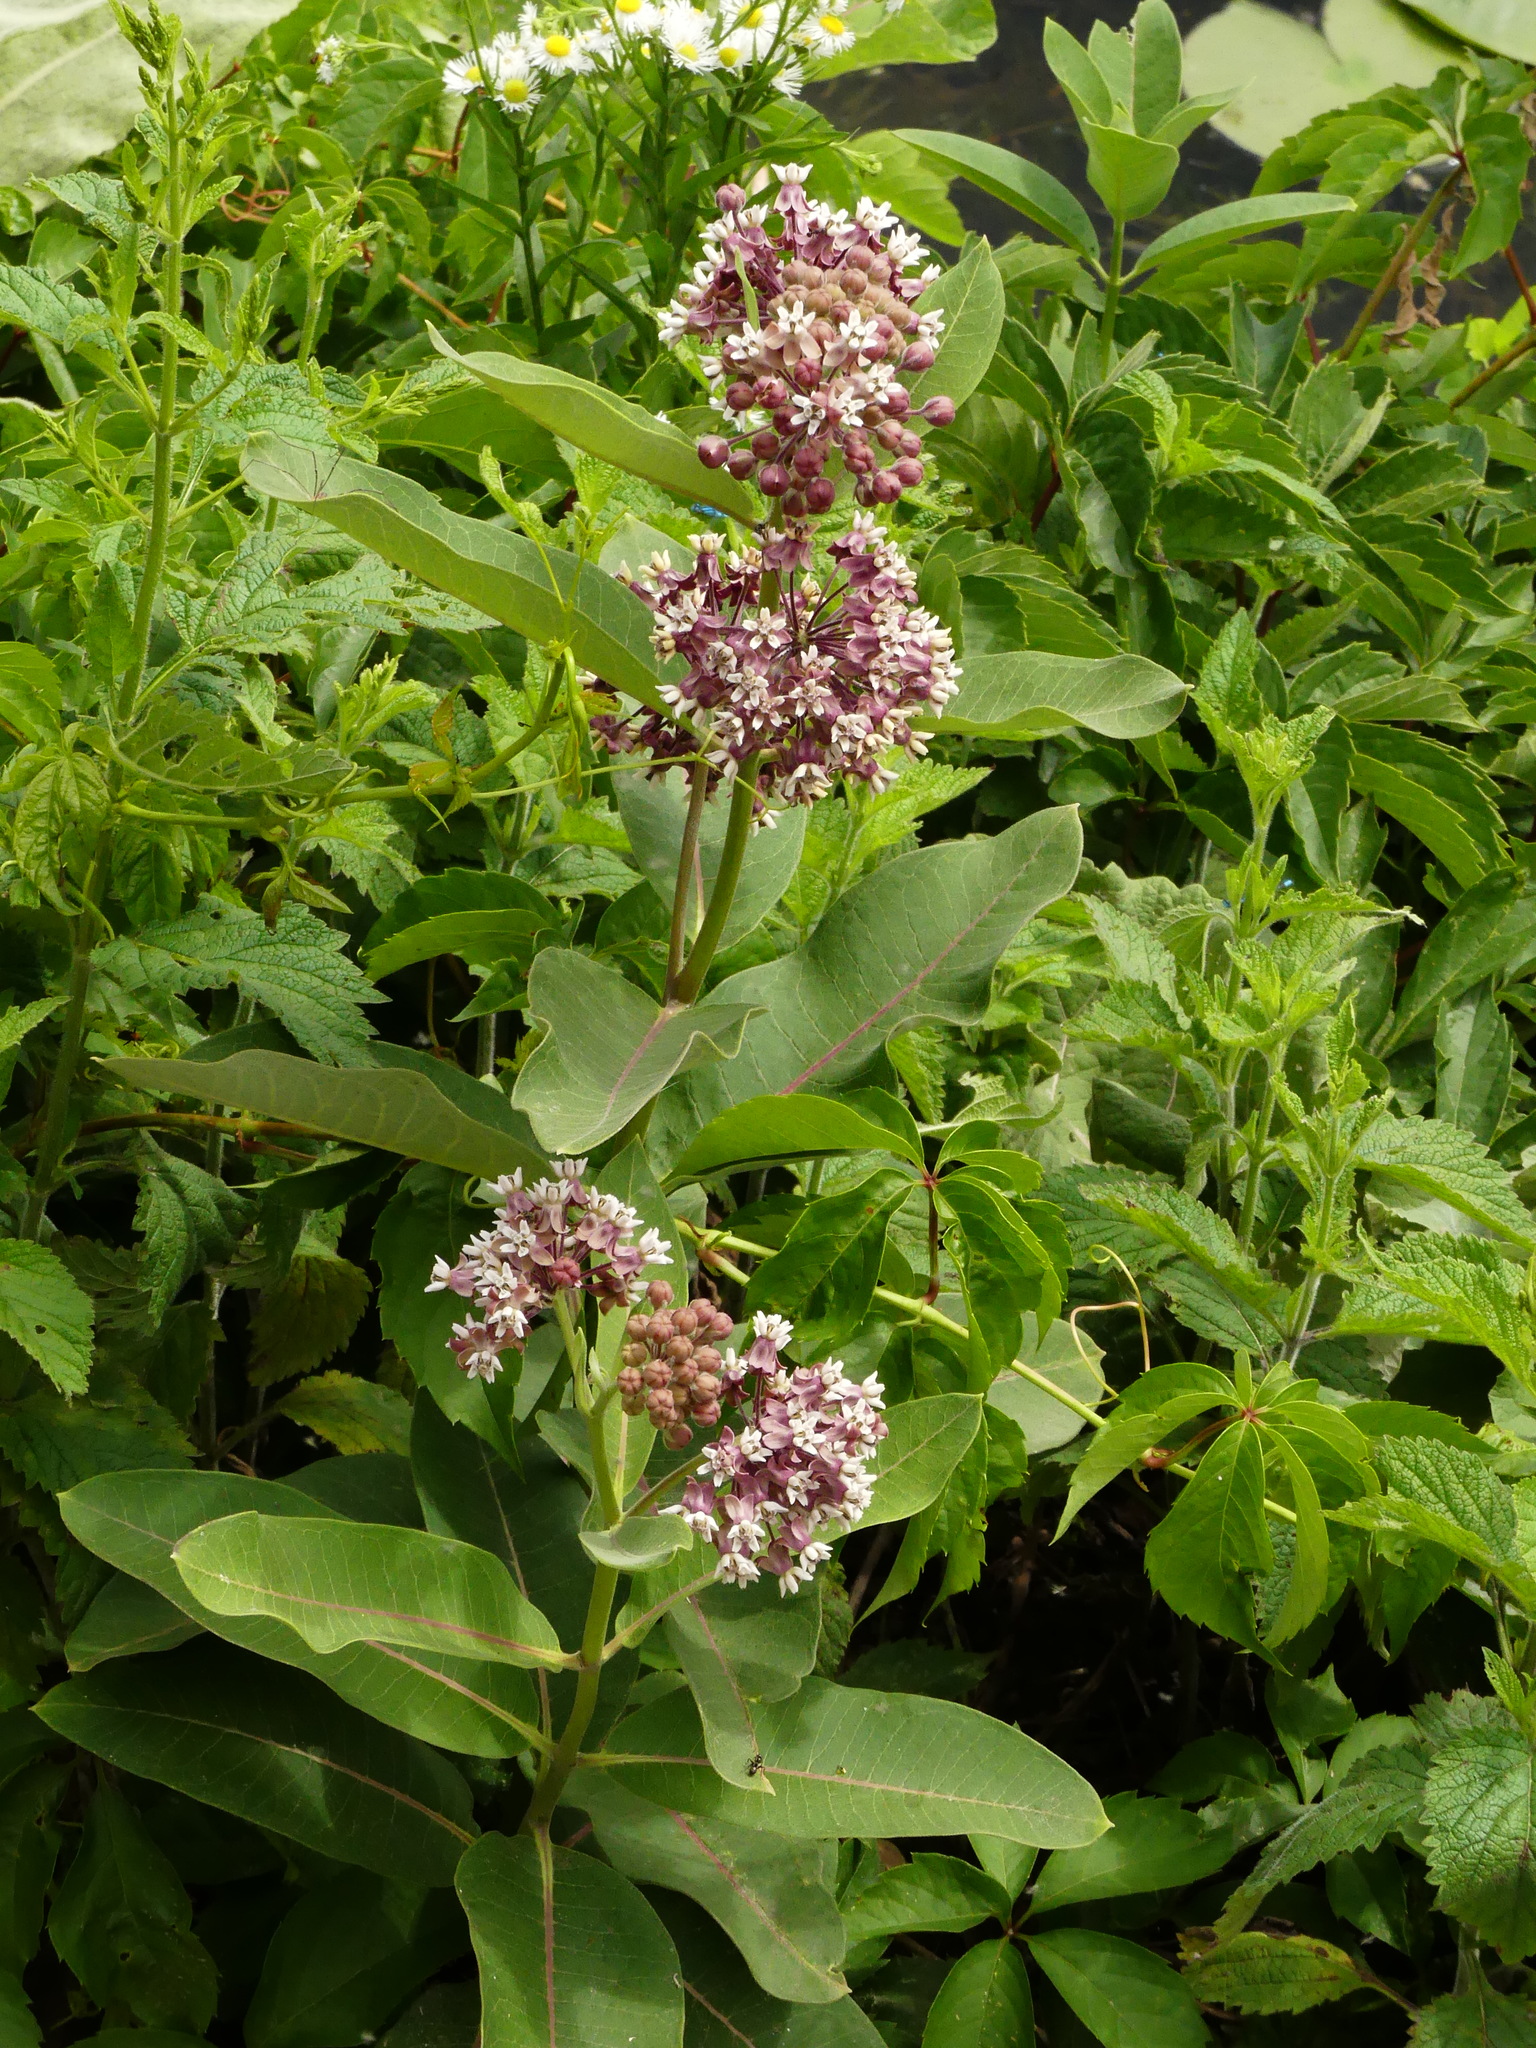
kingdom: Plantae
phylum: Tracheophyta
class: Magnoliopsida
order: Gentianales
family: Apocynaceae
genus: Asclepias
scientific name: Asclepias syriaca
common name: Common milkweed
